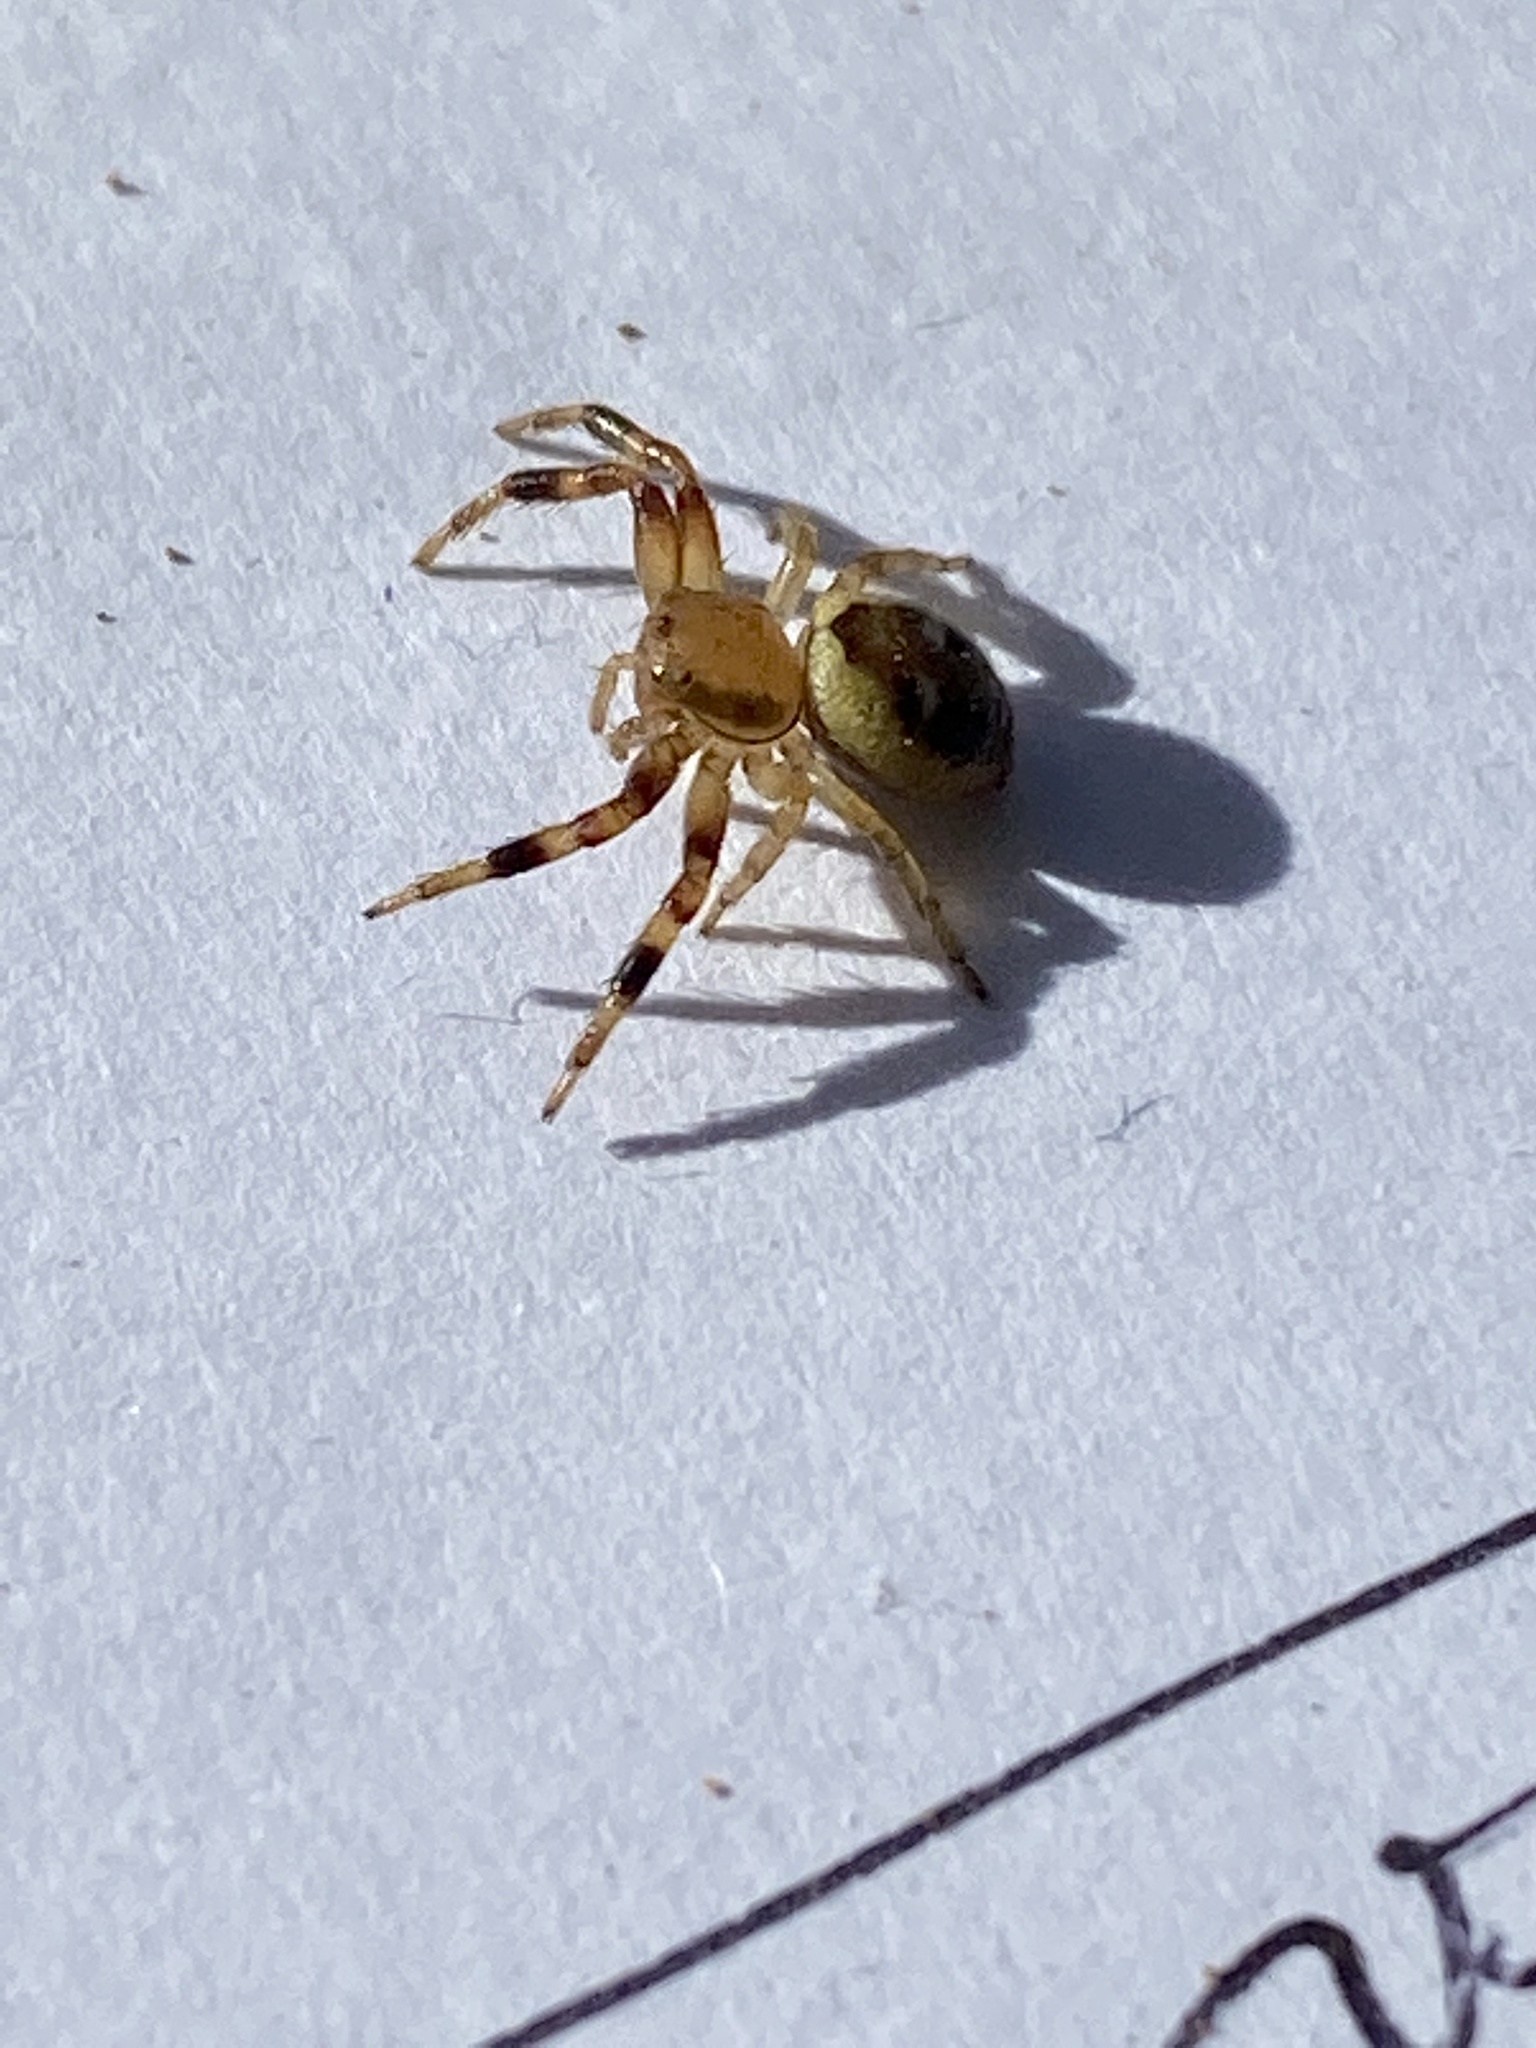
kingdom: Animalia
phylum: Arthropoda
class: Arachnida
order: Araneae
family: Thomisidae
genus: Synema
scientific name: Synema imitatrix
